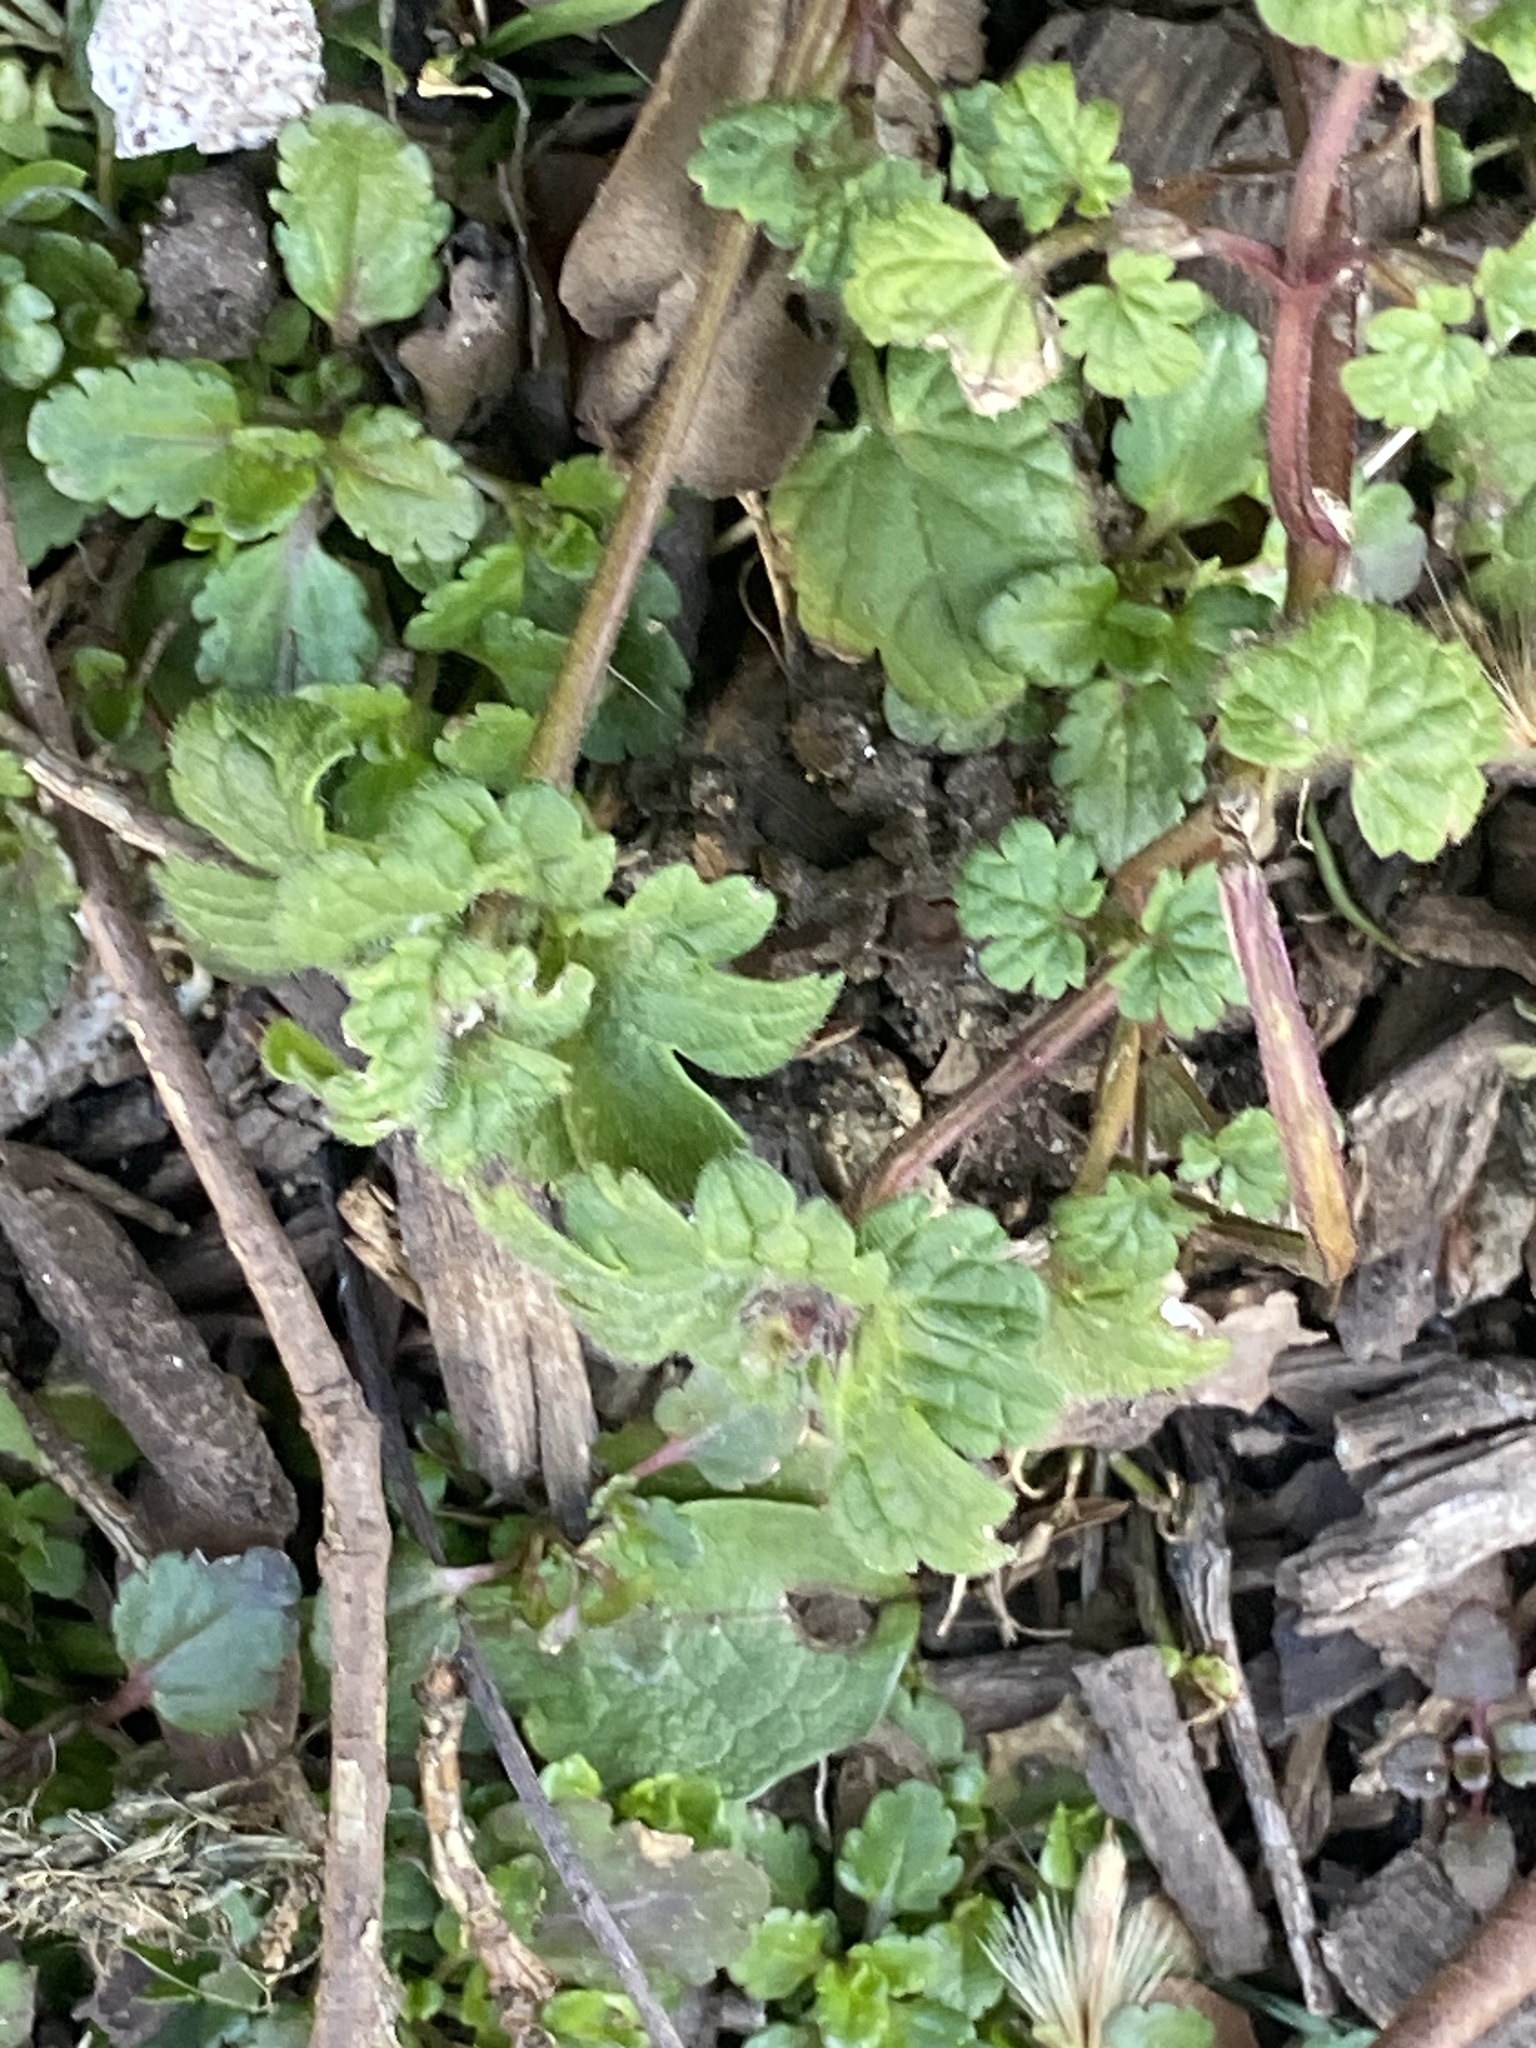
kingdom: Plantae
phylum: Tracheophyta
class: Magnoliopsida
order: Lamiales
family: Lamiaceae
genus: Lamium
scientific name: Lamium amplexicaule
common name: Henbit dead-nettle
